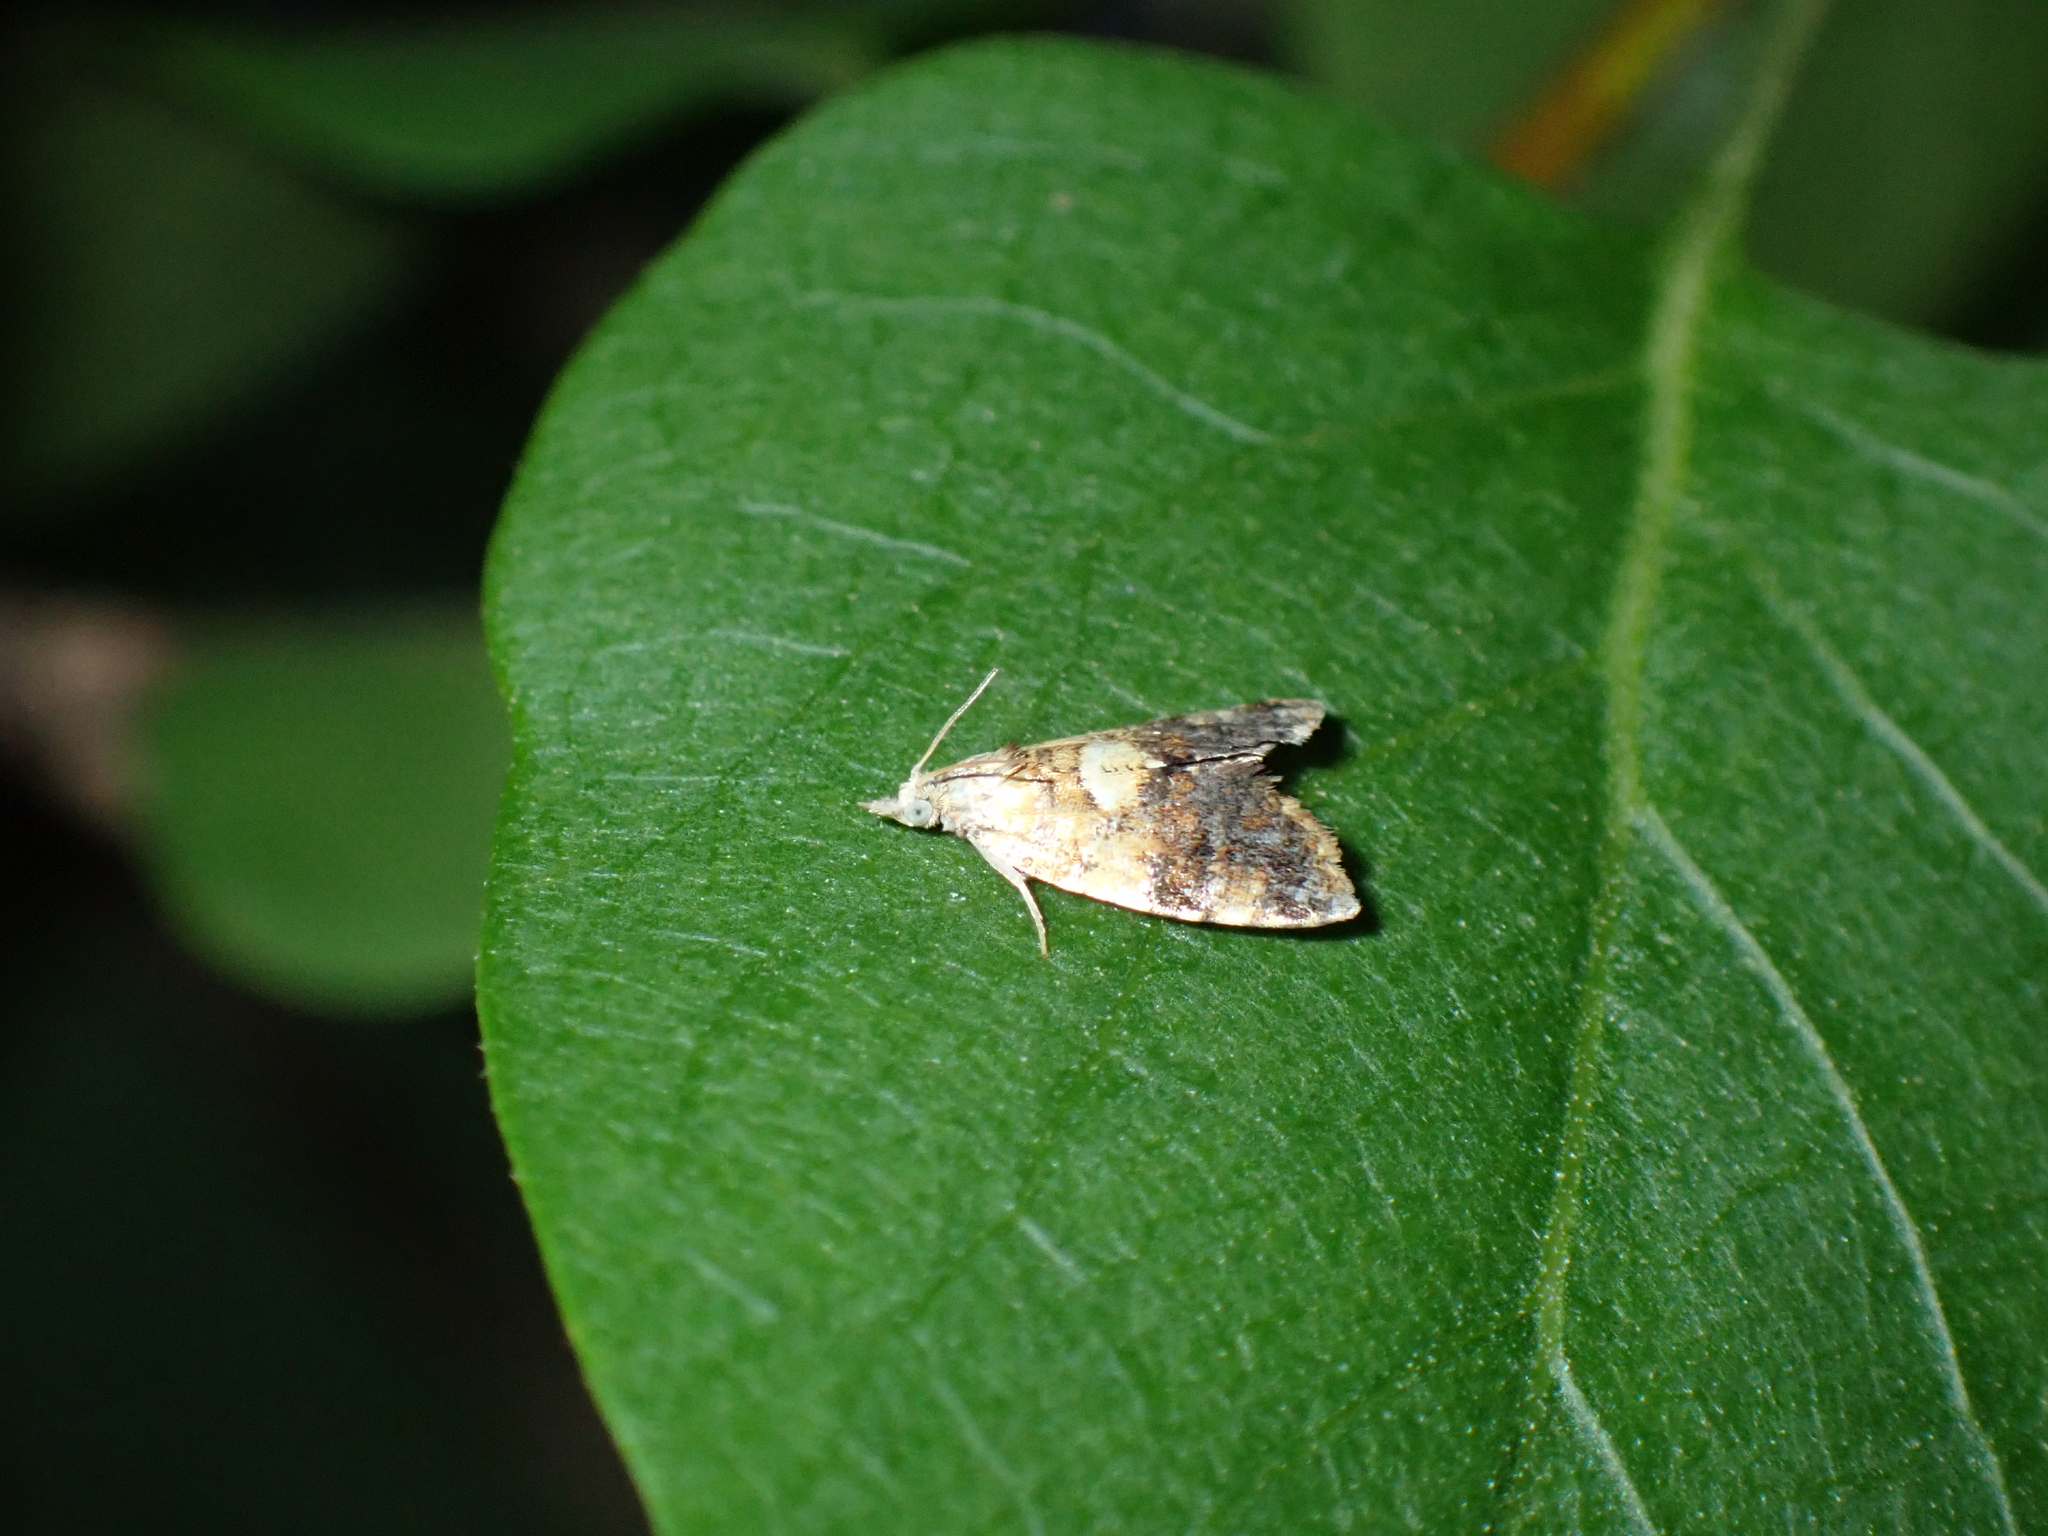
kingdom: Animalia
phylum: Arthropoda
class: Insecta
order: Lepidoptera
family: Tortricidae
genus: Pseudargyrotoza
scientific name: Pseudargyrotoza conwagana
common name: Yellow-spot twist
